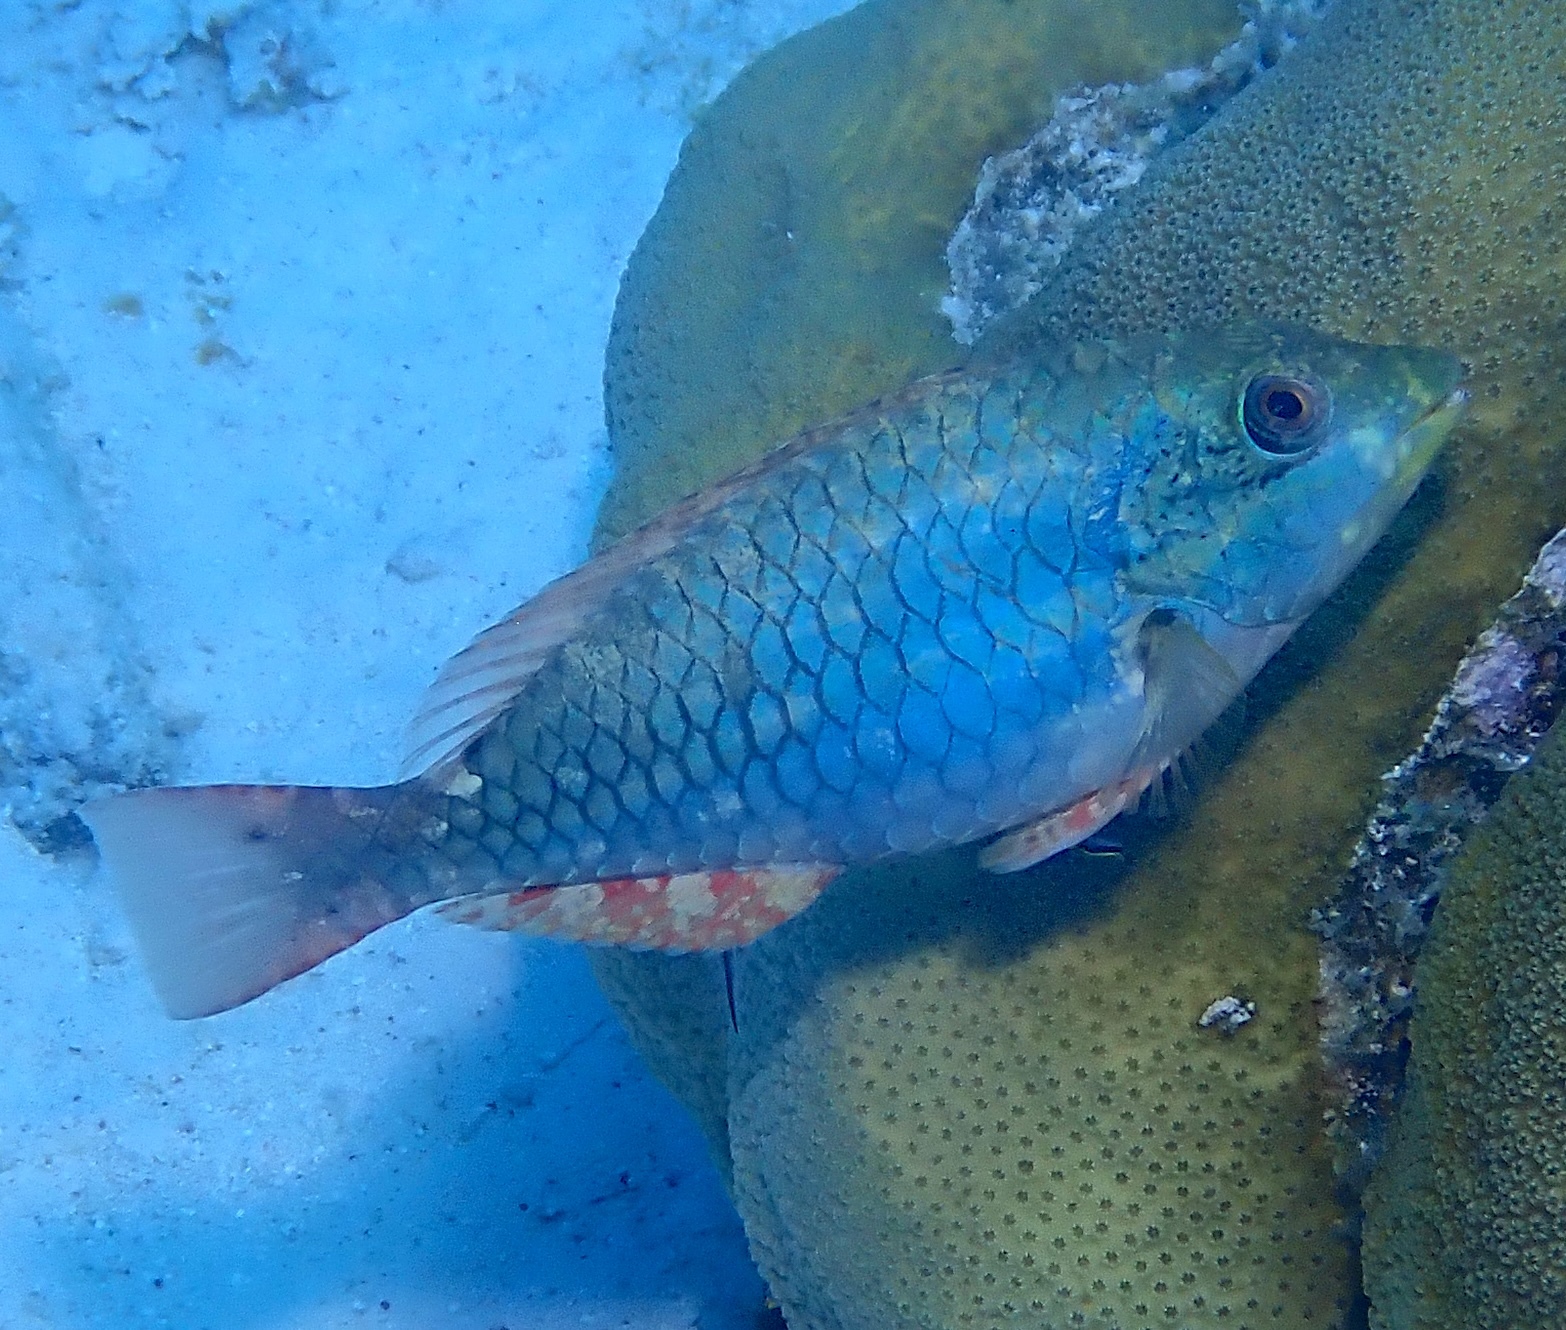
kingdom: Animalia
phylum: Chordata
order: Perciformes
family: Scaridae
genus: Sparisoma
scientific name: Sparisoma aurofrenatum
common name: Redband parrotfish
